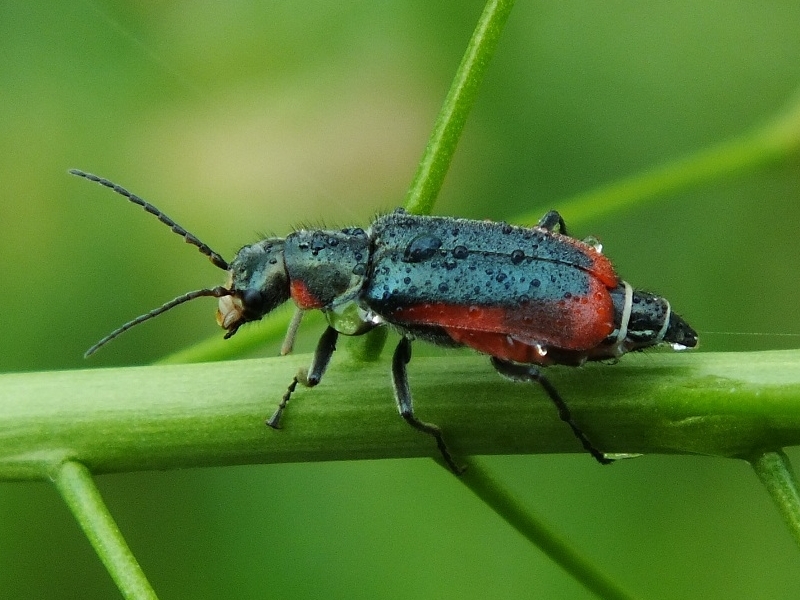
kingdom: Animalia
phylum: Arthropoda
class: Insecta
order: Coleoptera
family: Melyridae
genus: Malachius
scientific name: Malachius aeneus
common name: Scarlet malachite beetle
